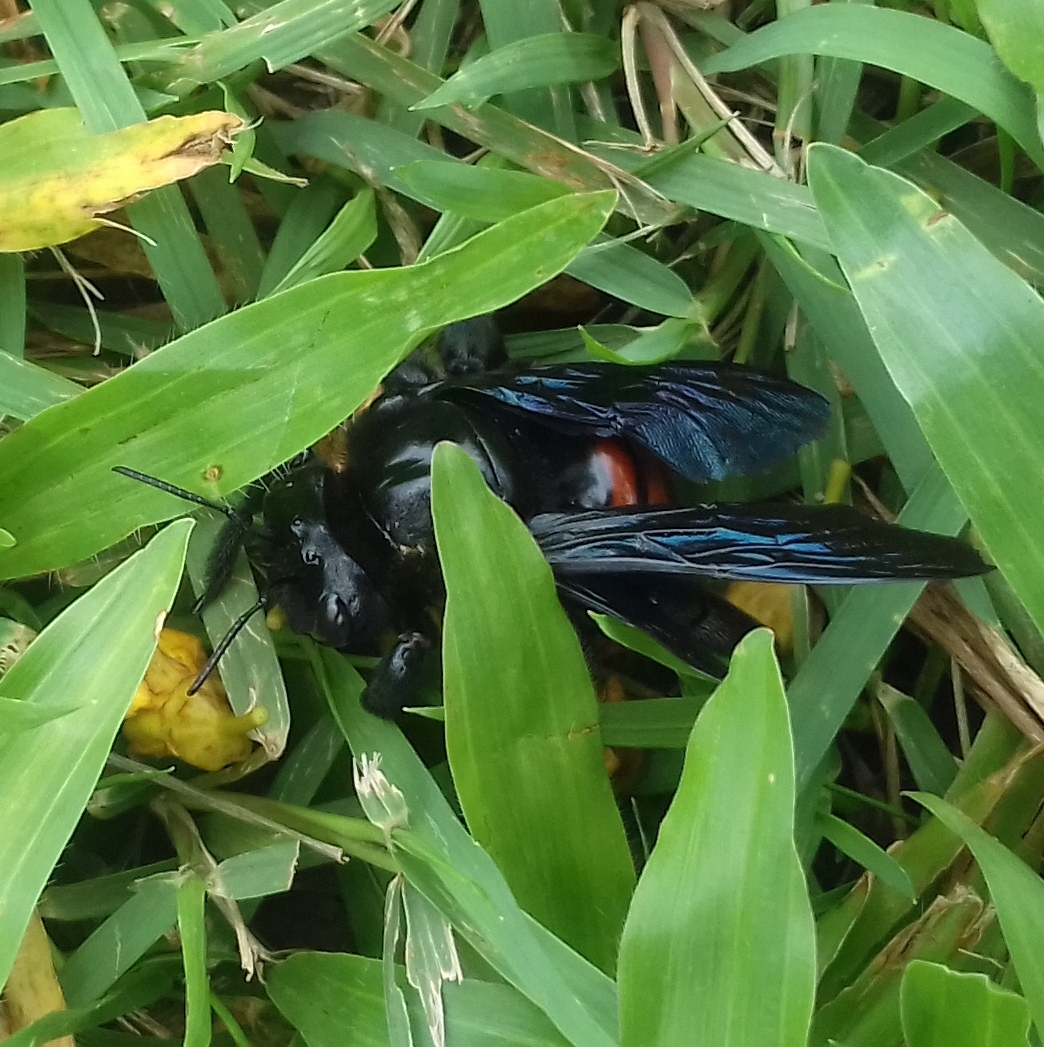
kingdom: Animalia
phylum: Arthropoda
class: Insecta
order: Hymenoptera
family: Apidae
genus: Xylocopa
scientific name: Xylocopa frontalis
